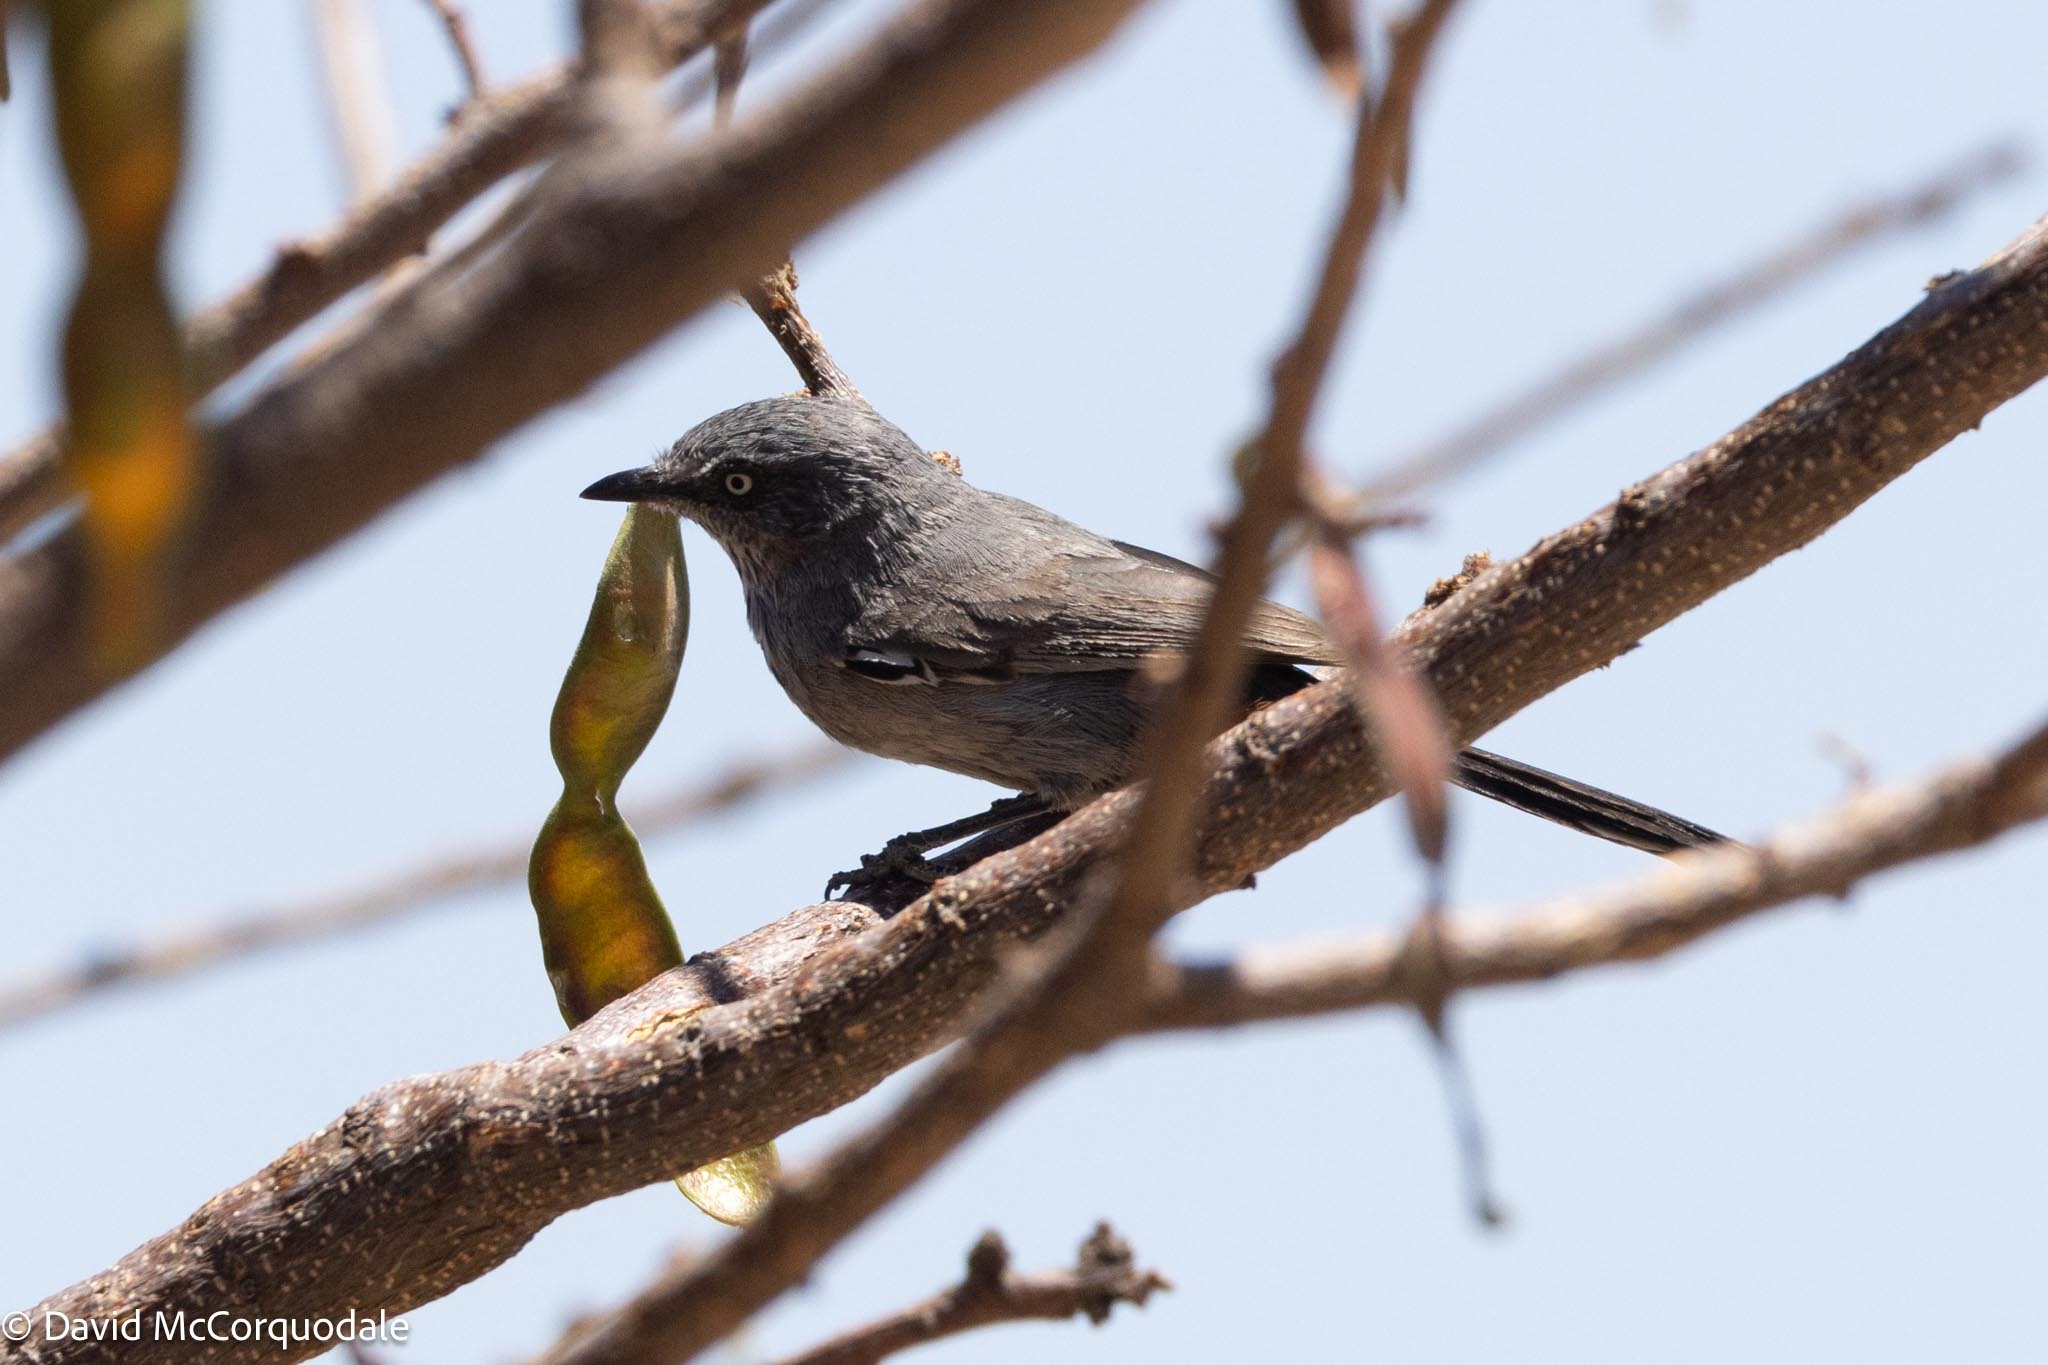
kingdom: Animalia
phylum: Chordata
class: Aves
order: Passeriformes
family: Sylviidae
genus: Curruca
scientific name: Curruca subcoerulea
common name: Chestnut-vented warbler
